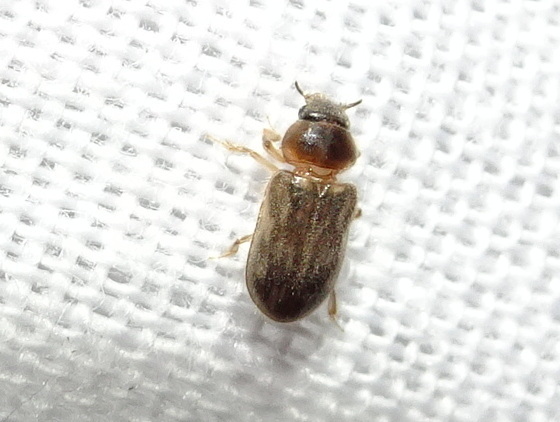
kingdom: Animalia
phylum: Arthropoda
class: Insecta
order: Coleoptera
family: Heteroceridae
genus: Heterocerus
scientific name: Heterocerus fenestratus
